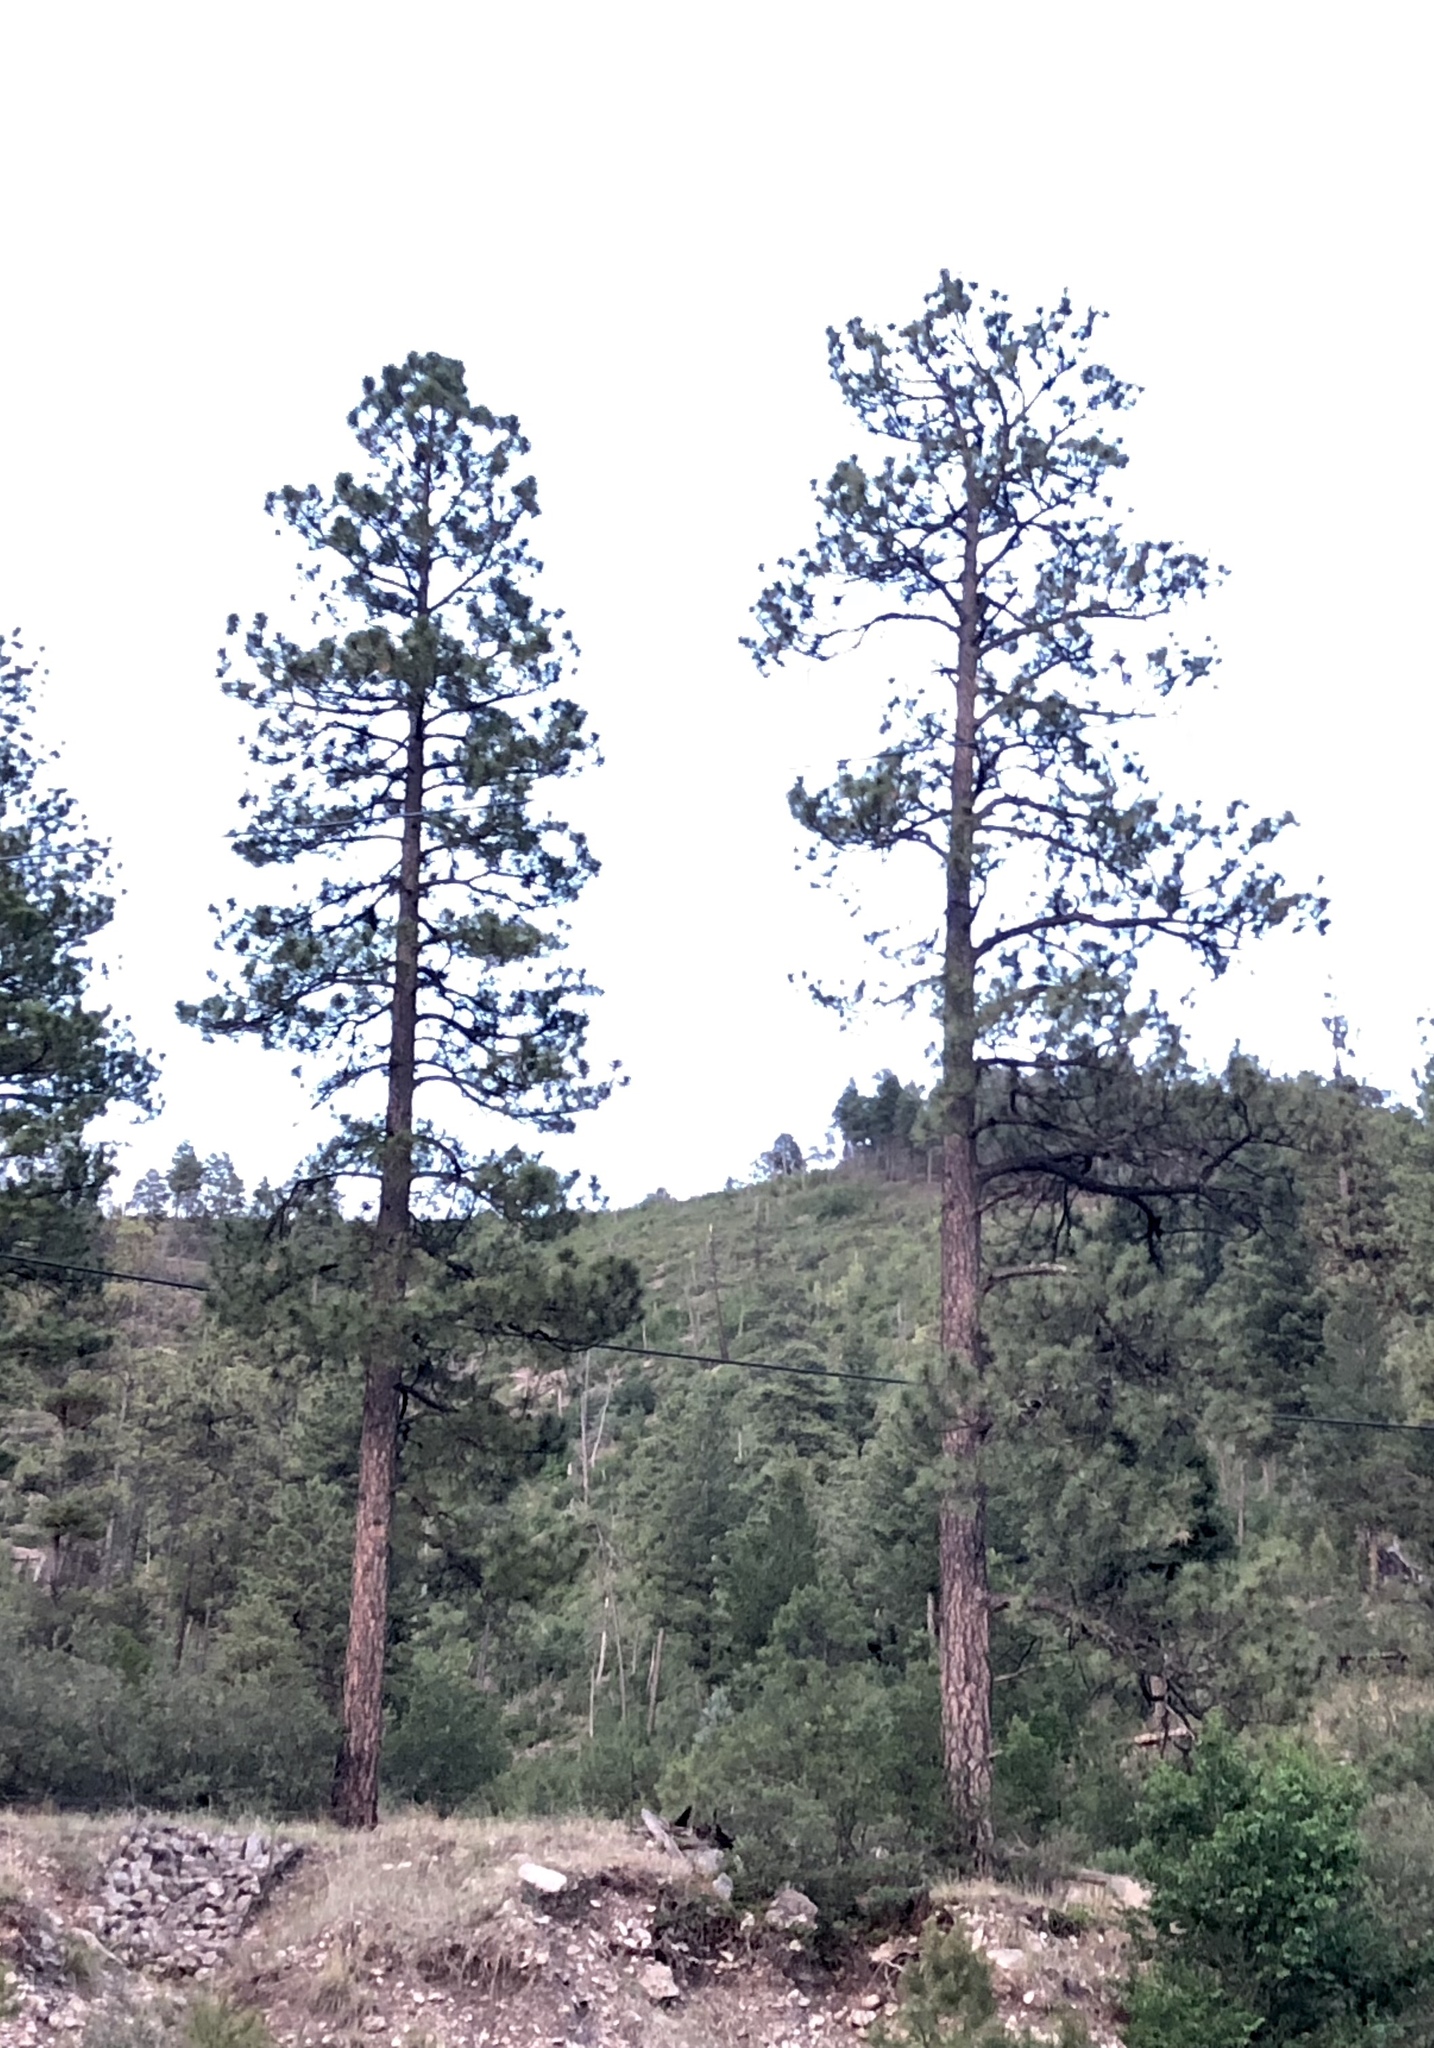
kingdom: Plantae
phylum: Tracheophyta
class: Pinopsida
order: Pinales
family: Pinaceae
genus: Pinus
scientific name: Pinus ponderosa
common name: Western yellow-pine
